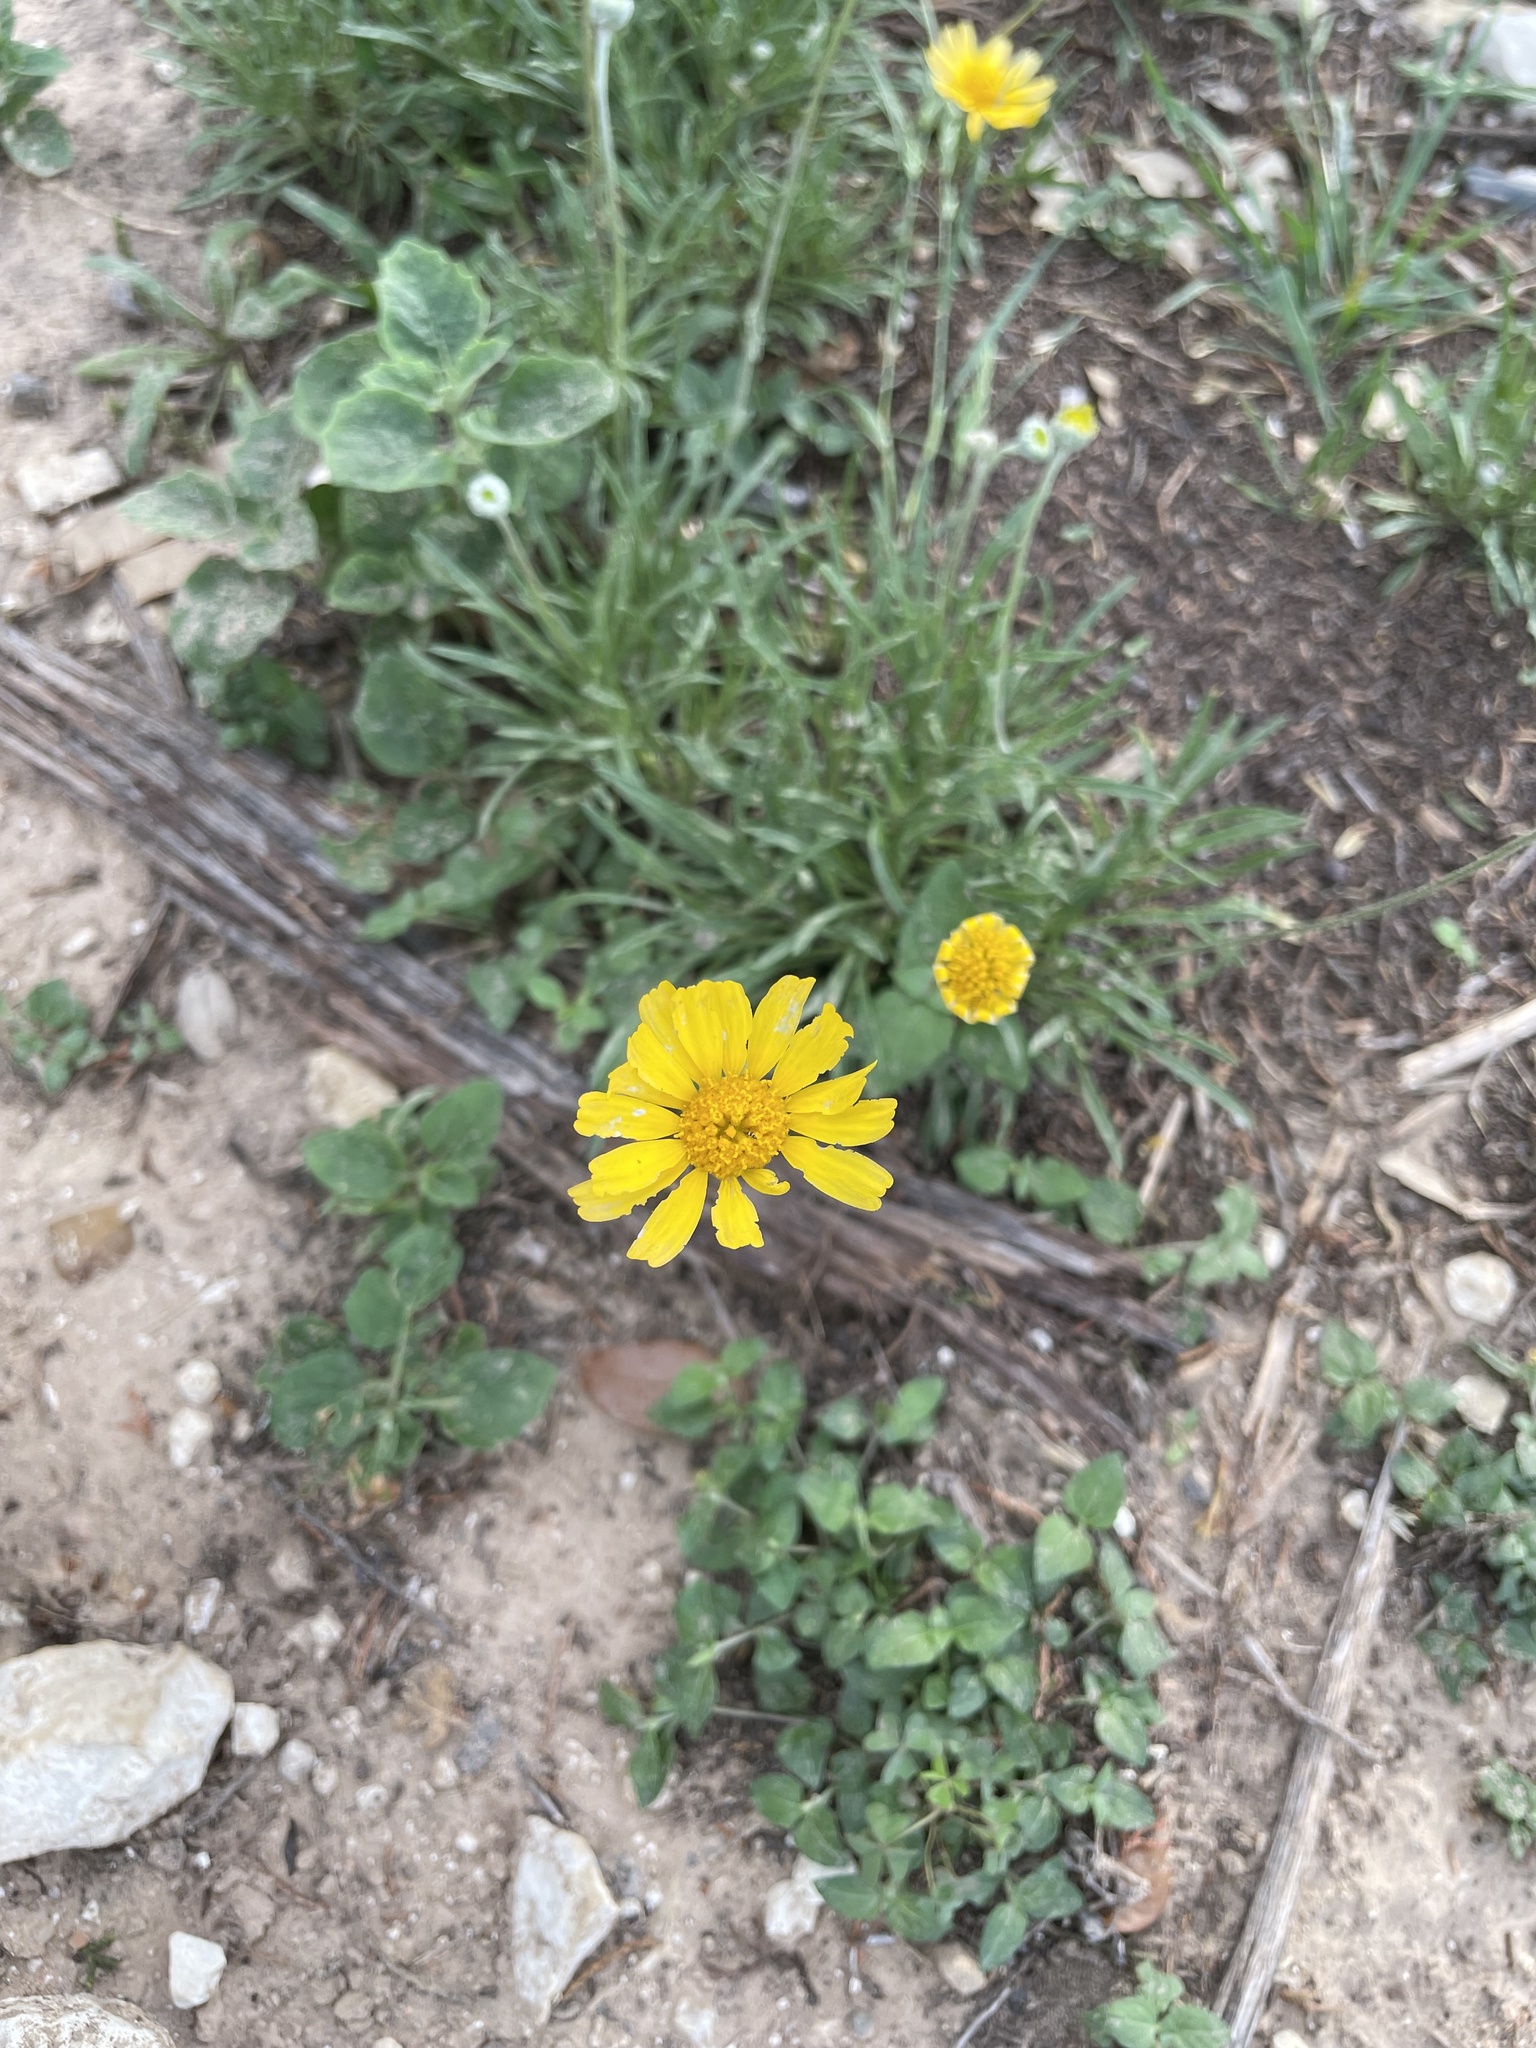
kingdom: Plantae
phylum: Tracheophyta
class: Magnoliopsida
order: Asterales
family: Asteraceae
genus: Tetraneuris
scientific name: Tetraneuris scaposa
